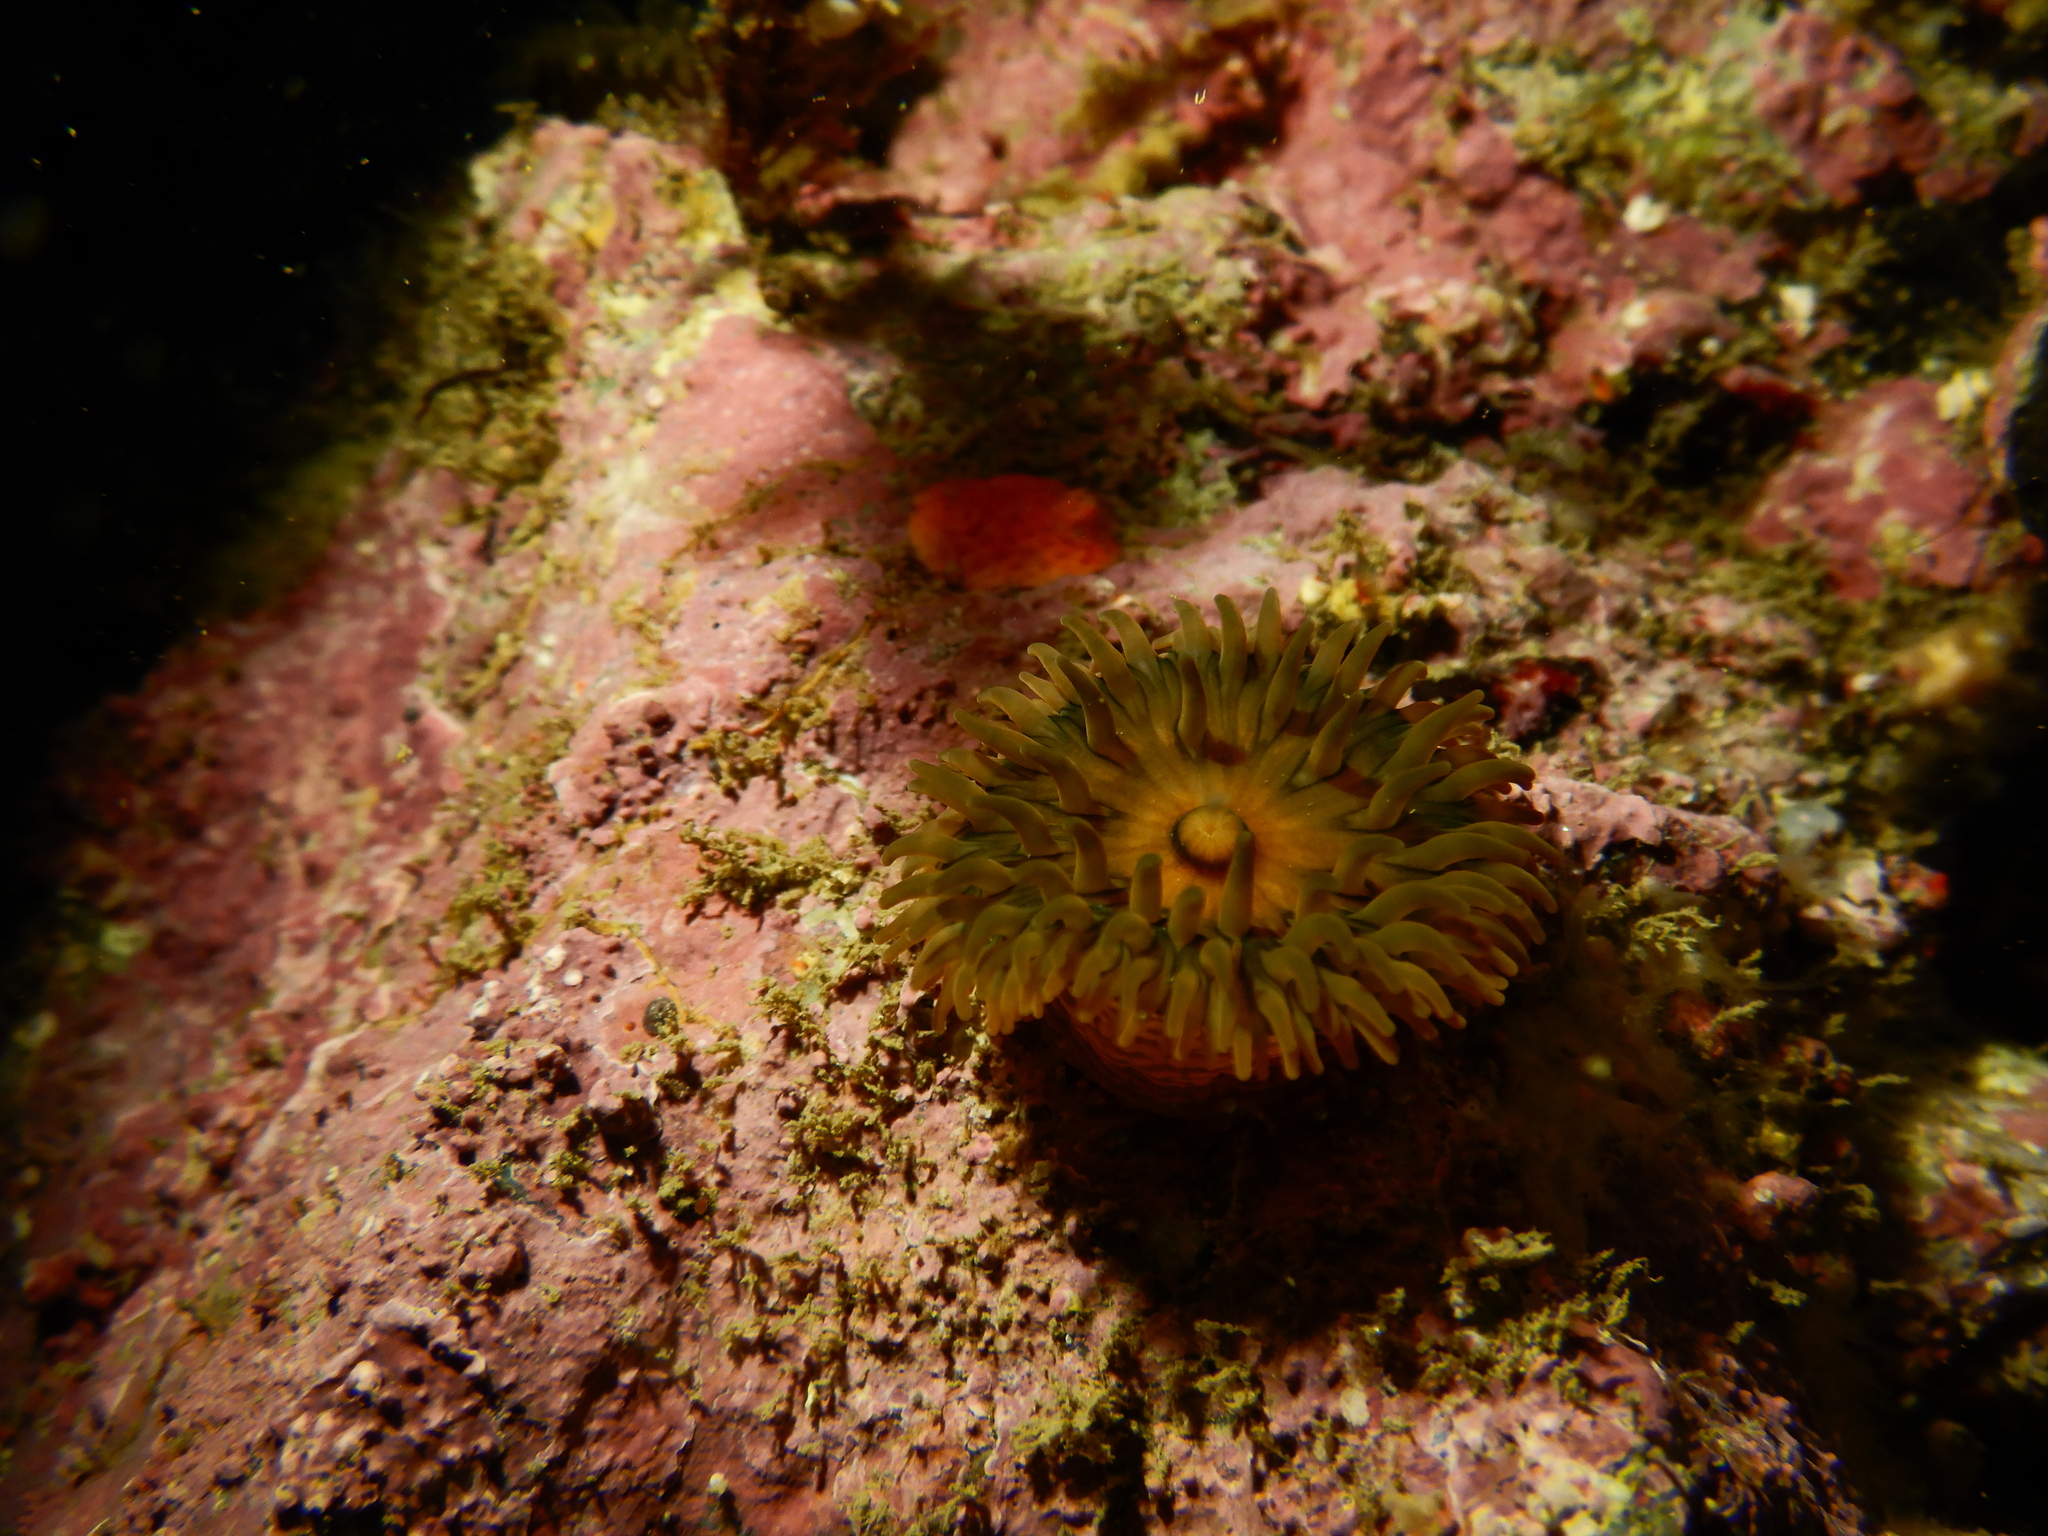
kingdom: Animalia
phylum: Cnidaria
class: Anthozoa
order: Actiniaria
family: Actinostolidae
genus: Antholoba
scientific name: Antholoba achates
